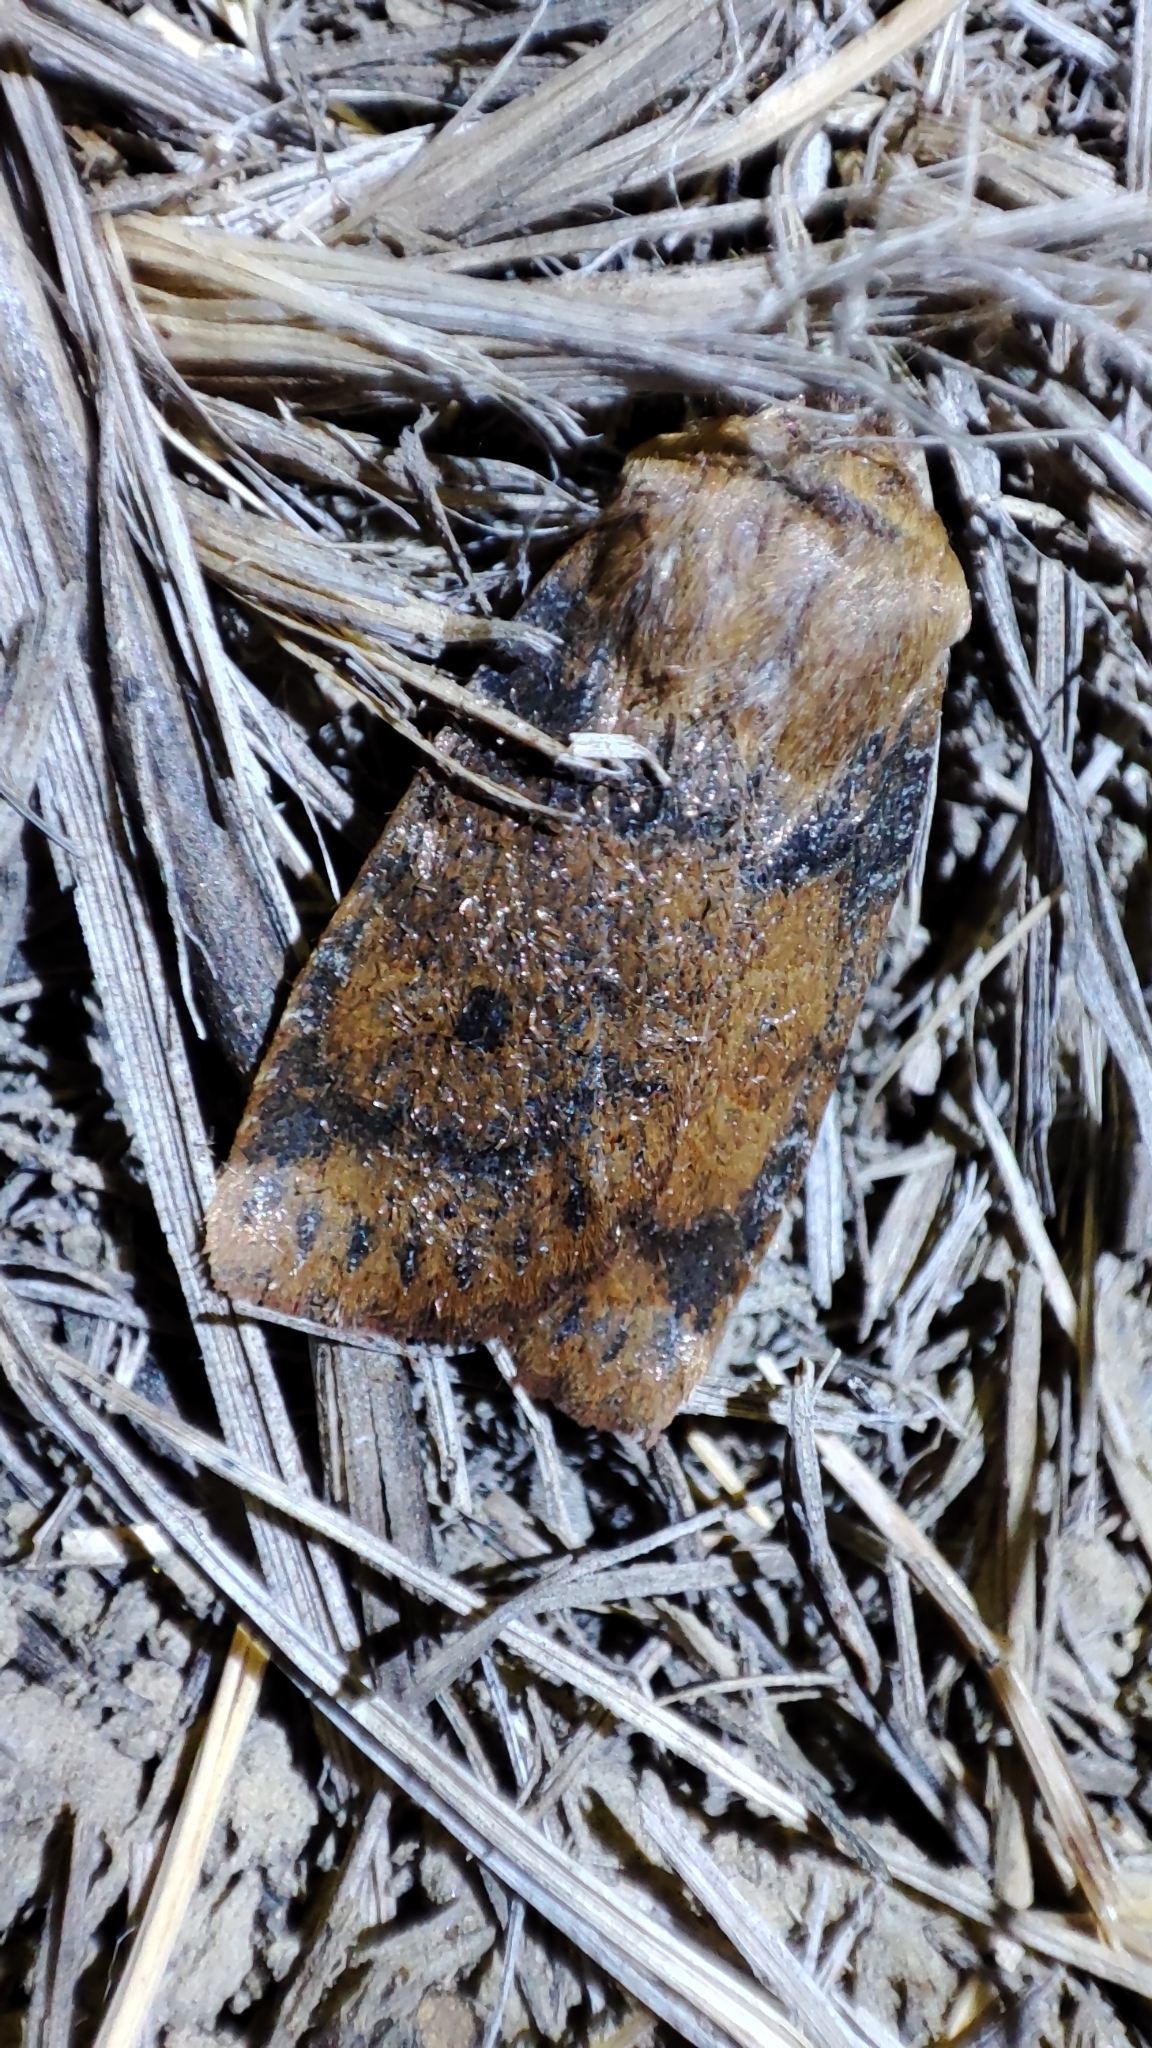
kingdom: Animalia
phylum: Arthropoda
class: Insecta
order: Lepidoptera
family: Noctuidae
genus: Conistra
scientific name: Conistra vaccinii
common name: Chestnut
